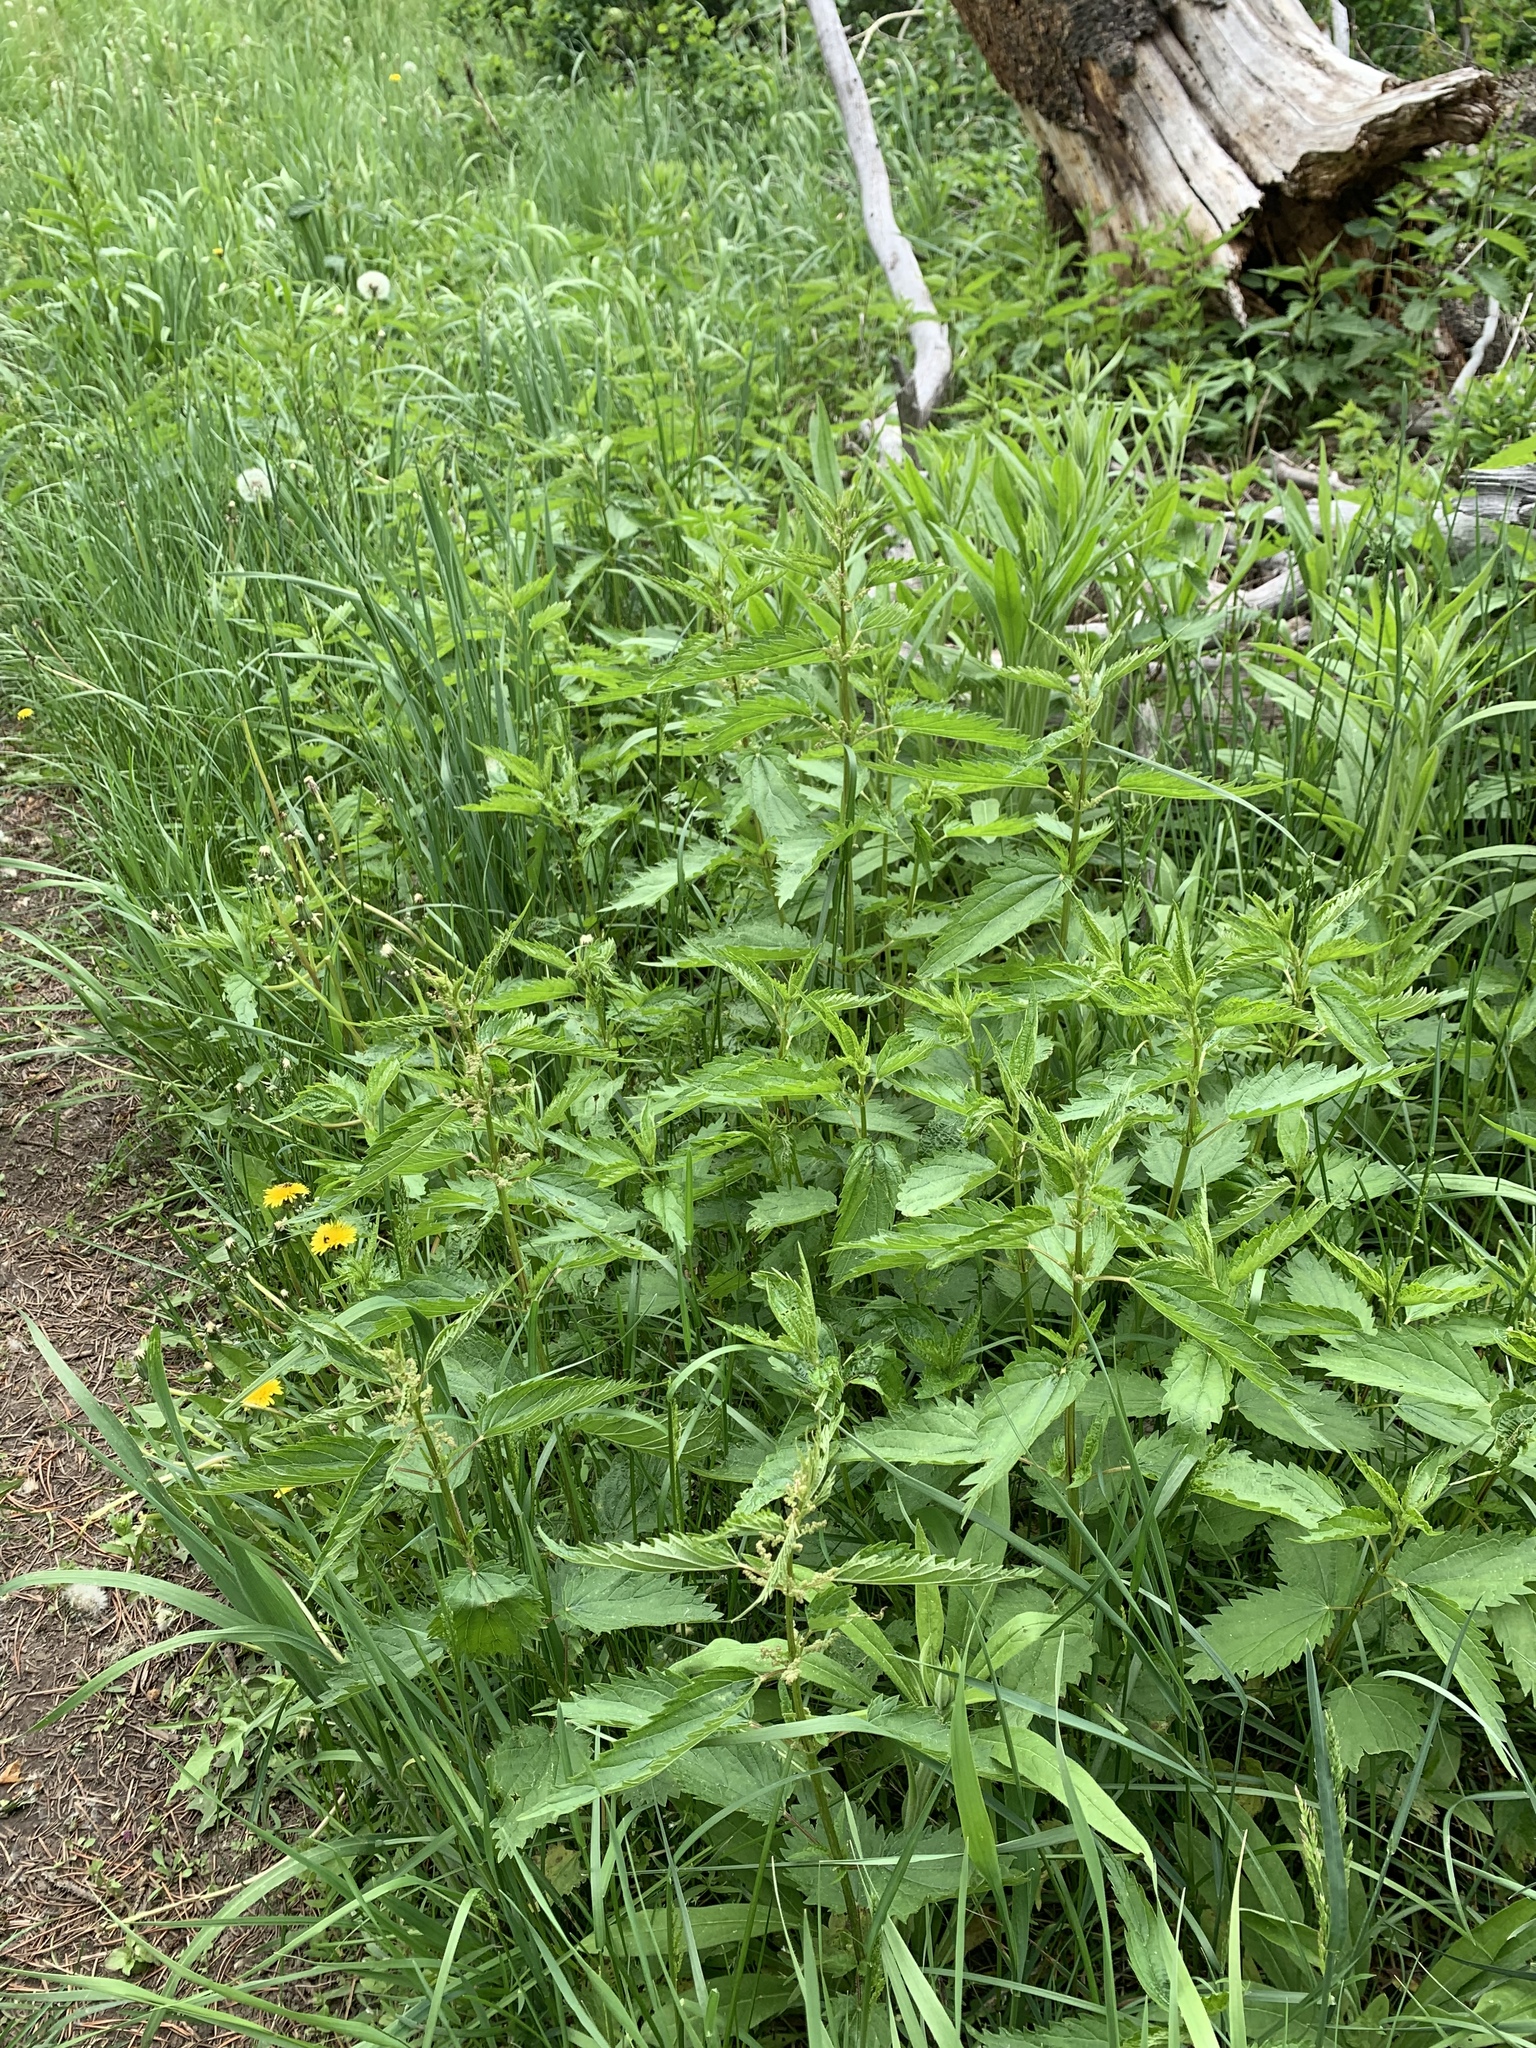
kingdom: Plantae
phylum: Tracheophyta
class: Magnoliopsida
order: Rosales
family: Urticaceae
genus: Urtica
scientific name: Urtica dioica
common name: Common nettle
